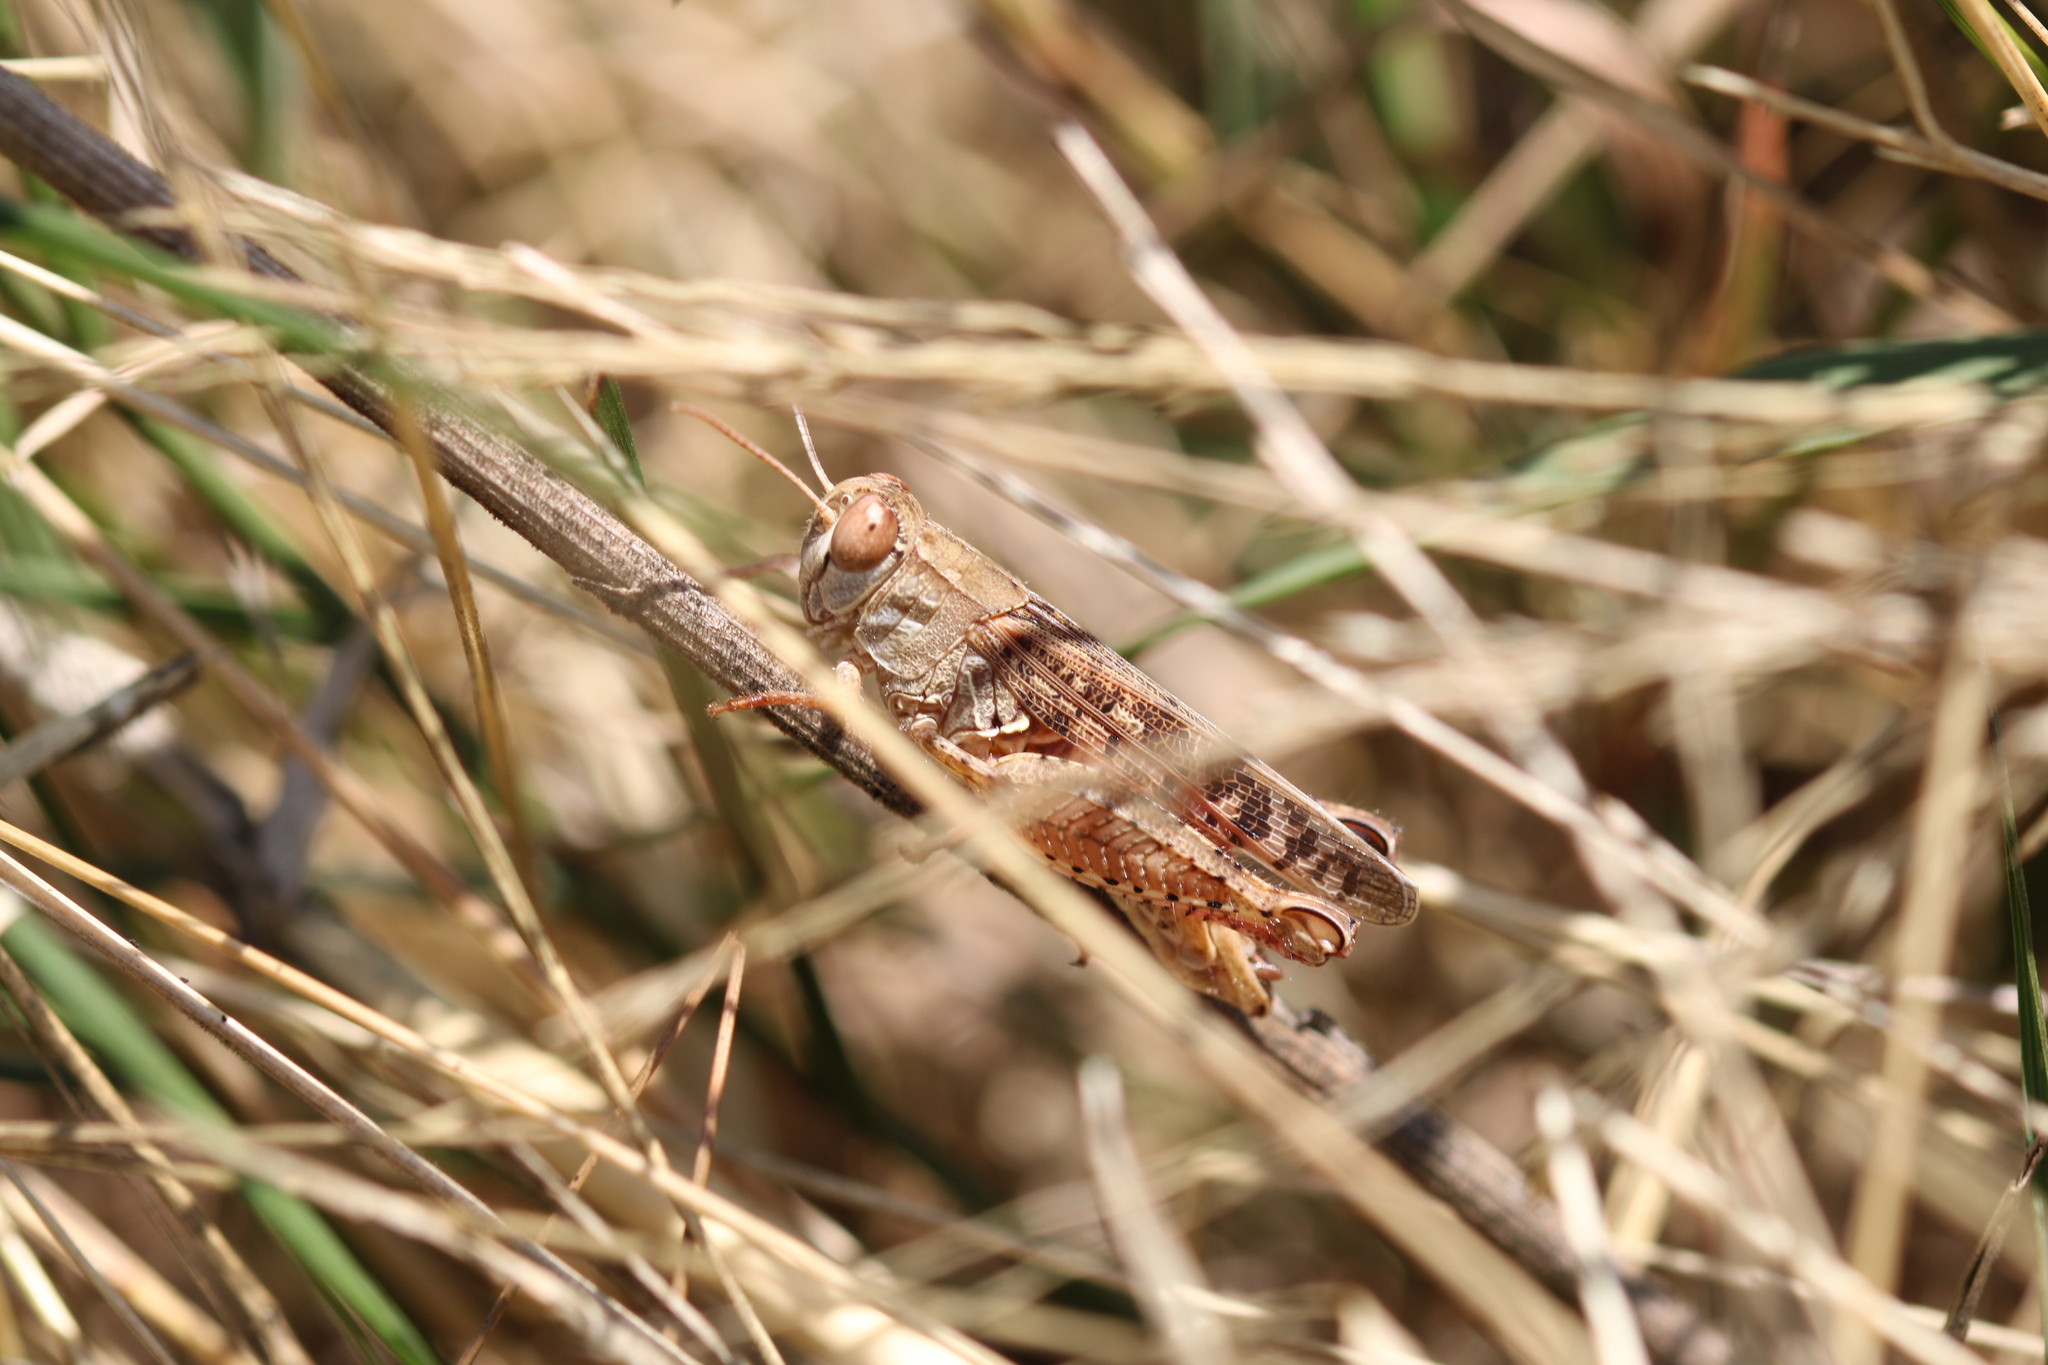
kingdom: Animalia
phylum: Arthropoda
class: Insecta
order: Orthoptera
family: Acrididae
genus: Calliptamus
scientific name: Calliptamus italicus
